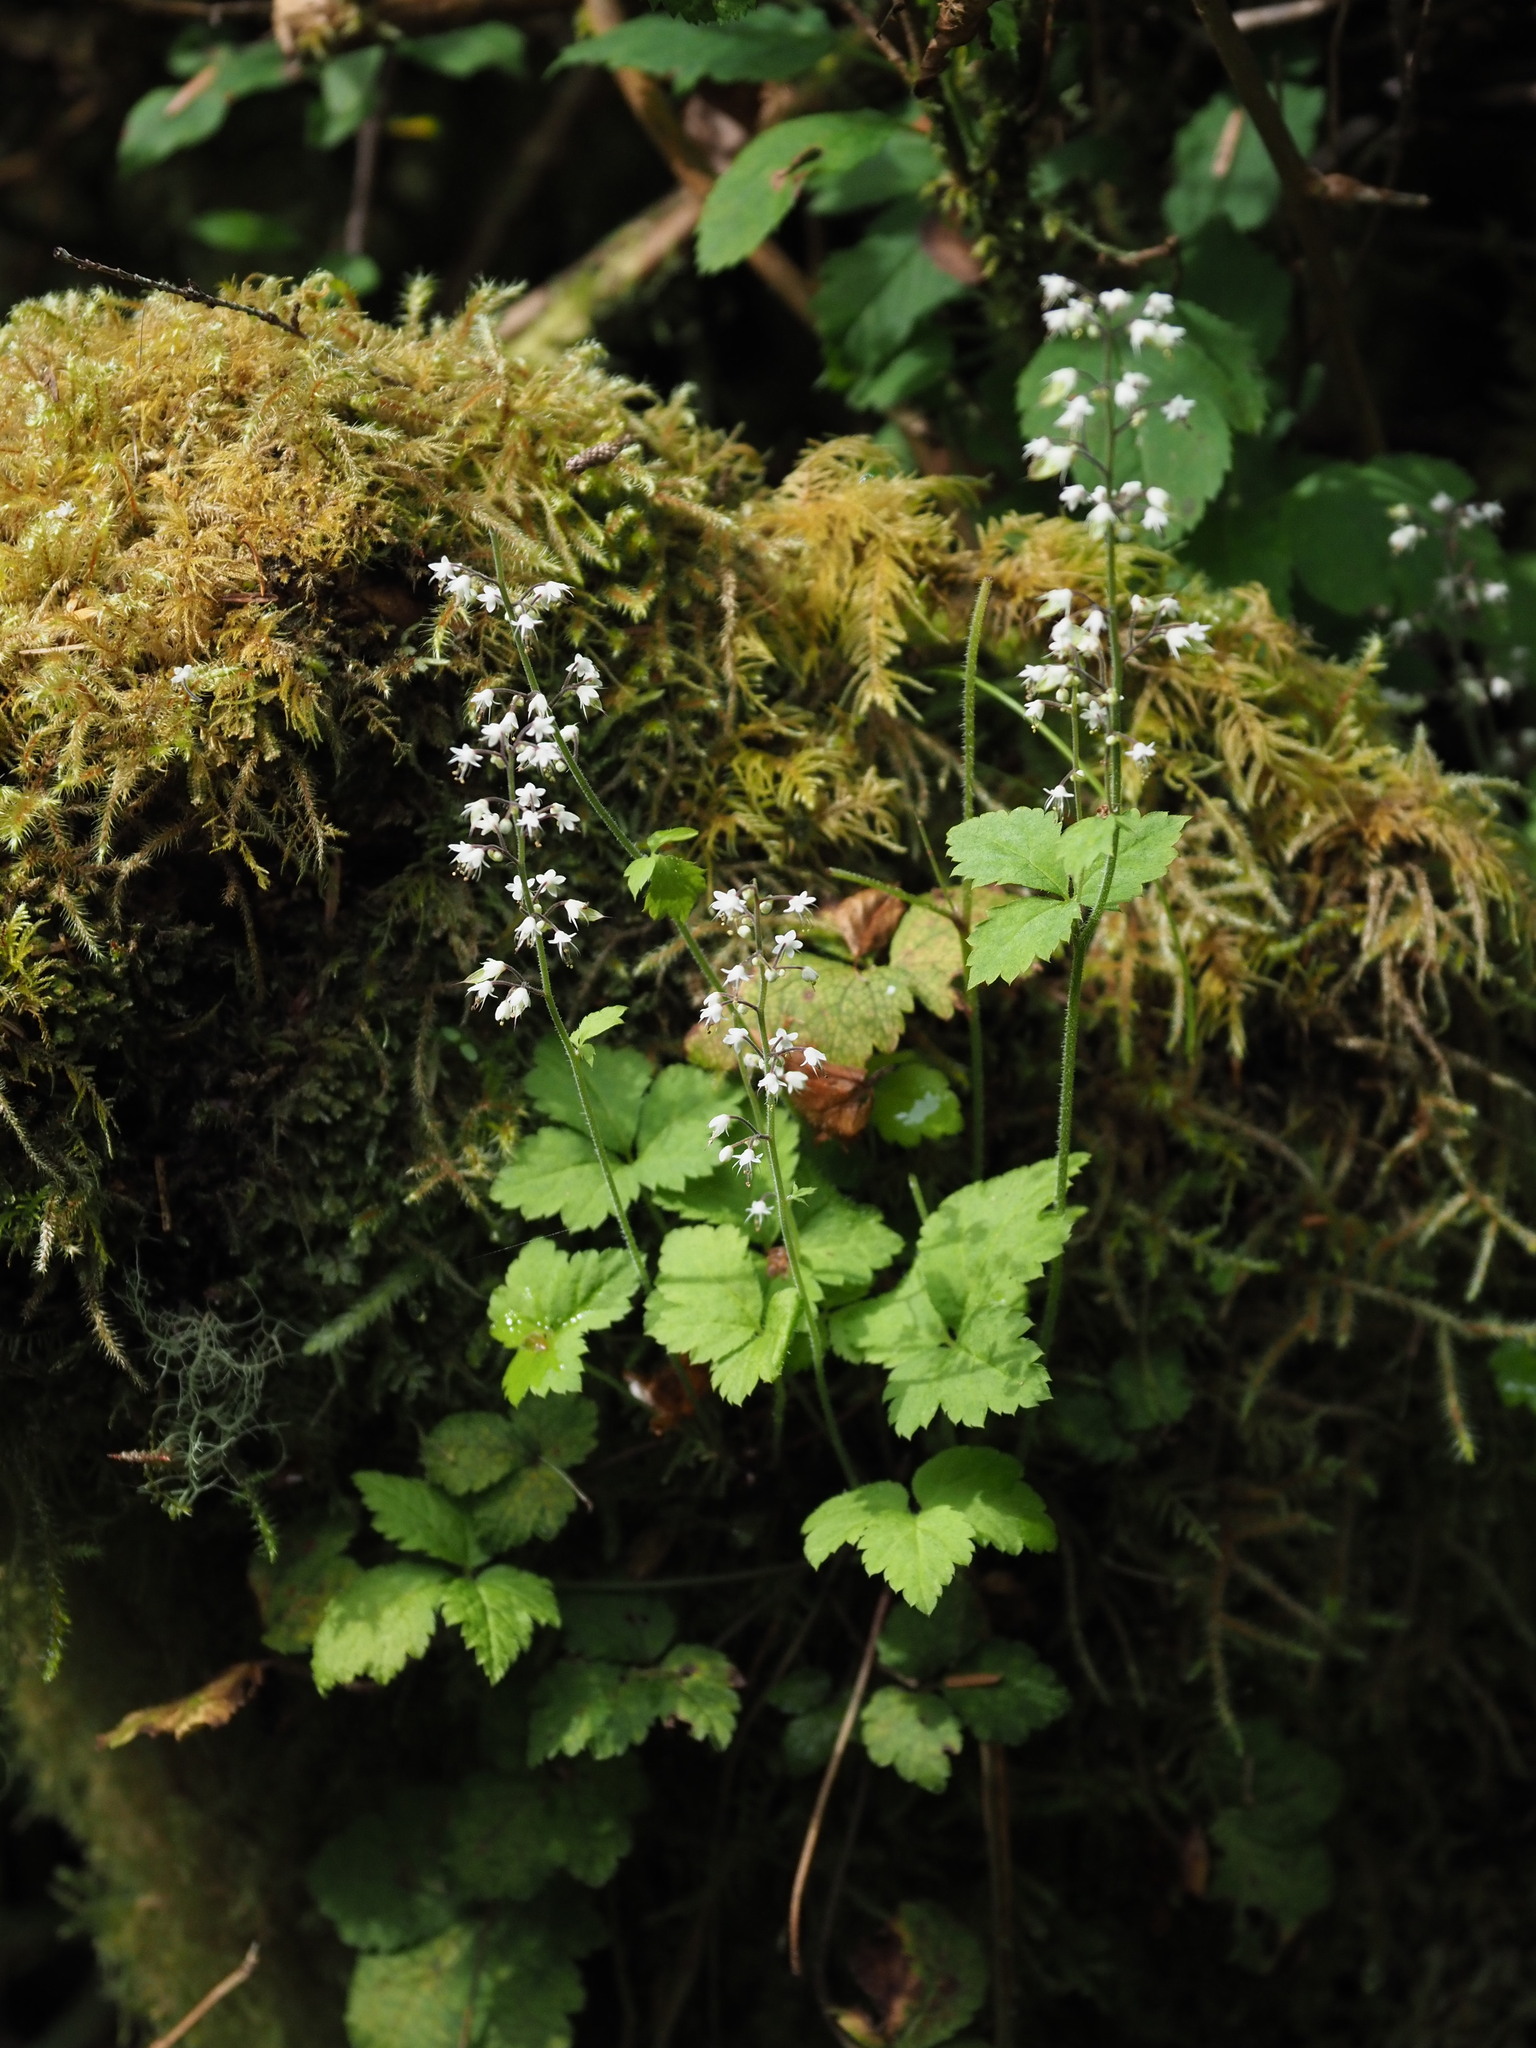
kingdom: Plantae
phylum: Tracheophyta
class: Magnoliopsida
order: Saxifragales
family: Saxifragaceae
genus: Tiarella
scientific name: Tiarella trifoliata
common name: Sugar-scoop
